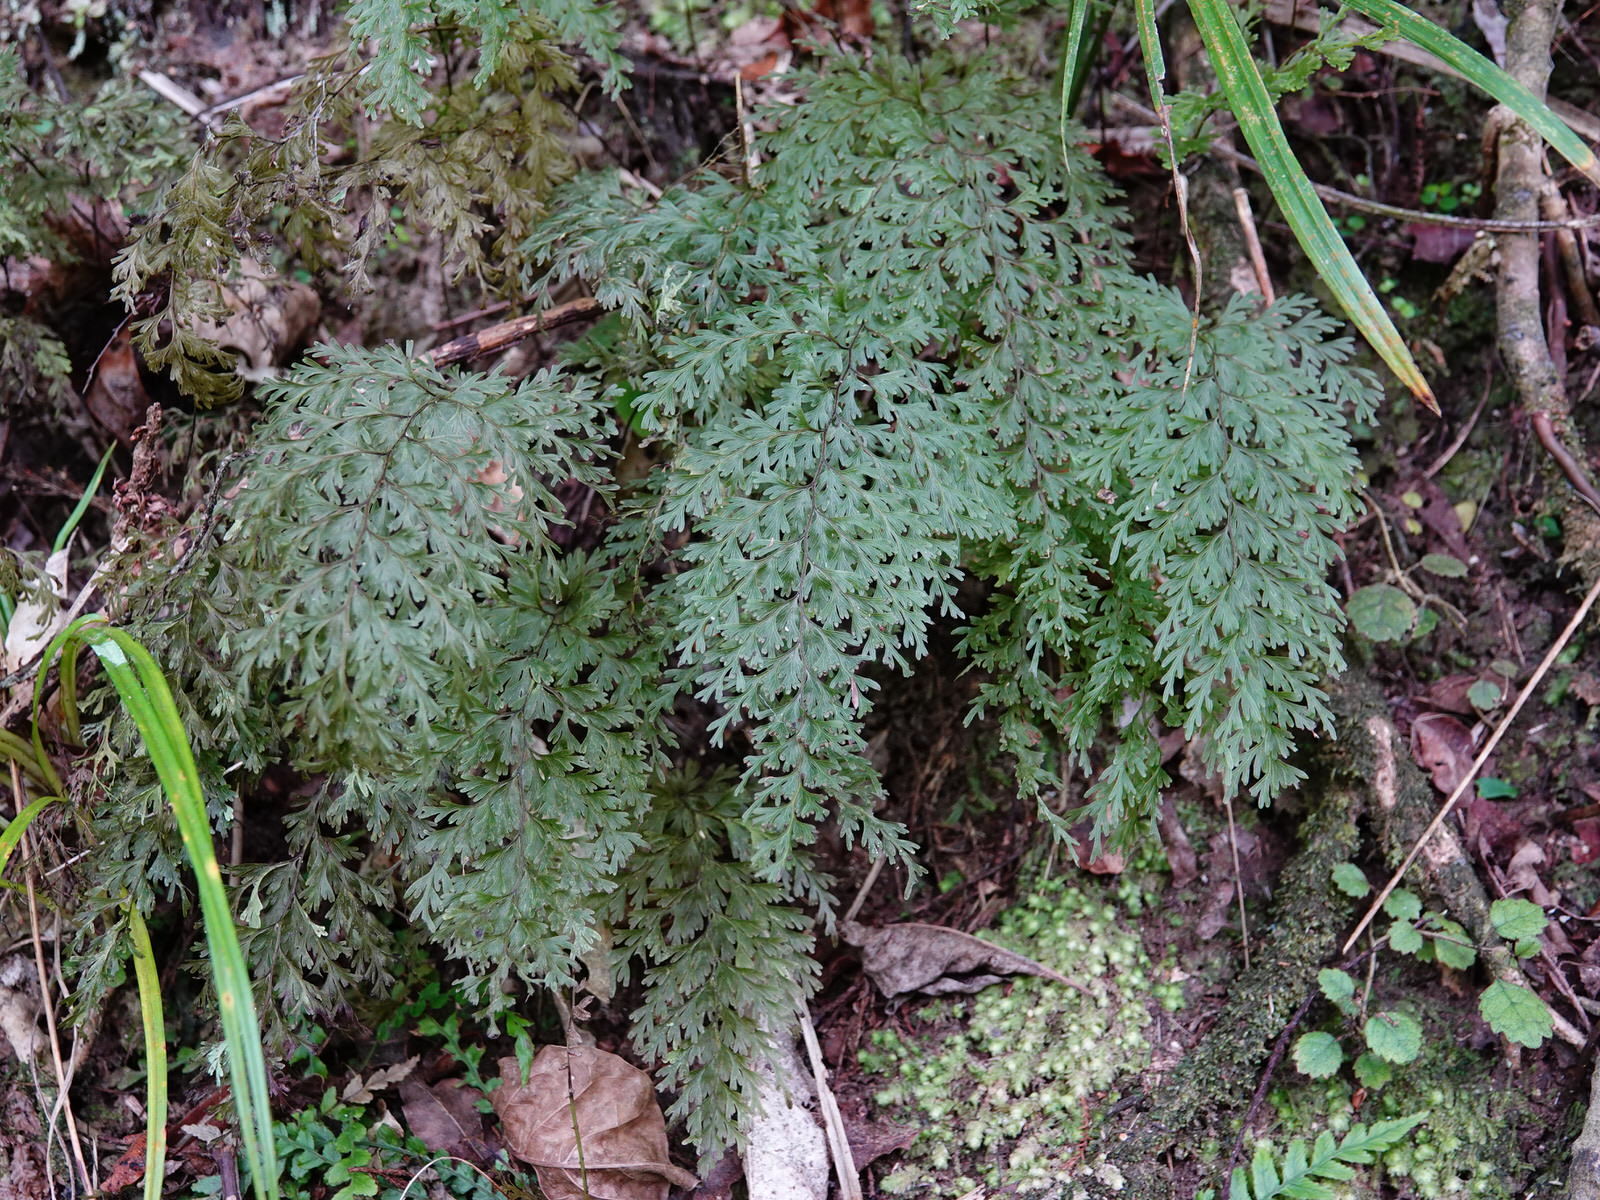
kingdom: Plantae
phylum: Tracheophyta
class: Polypodiopsida
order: Hymenophyllales
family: Hymenophyllaceae
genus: Hymenophyllum
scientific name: Hymenophyllum demissum
